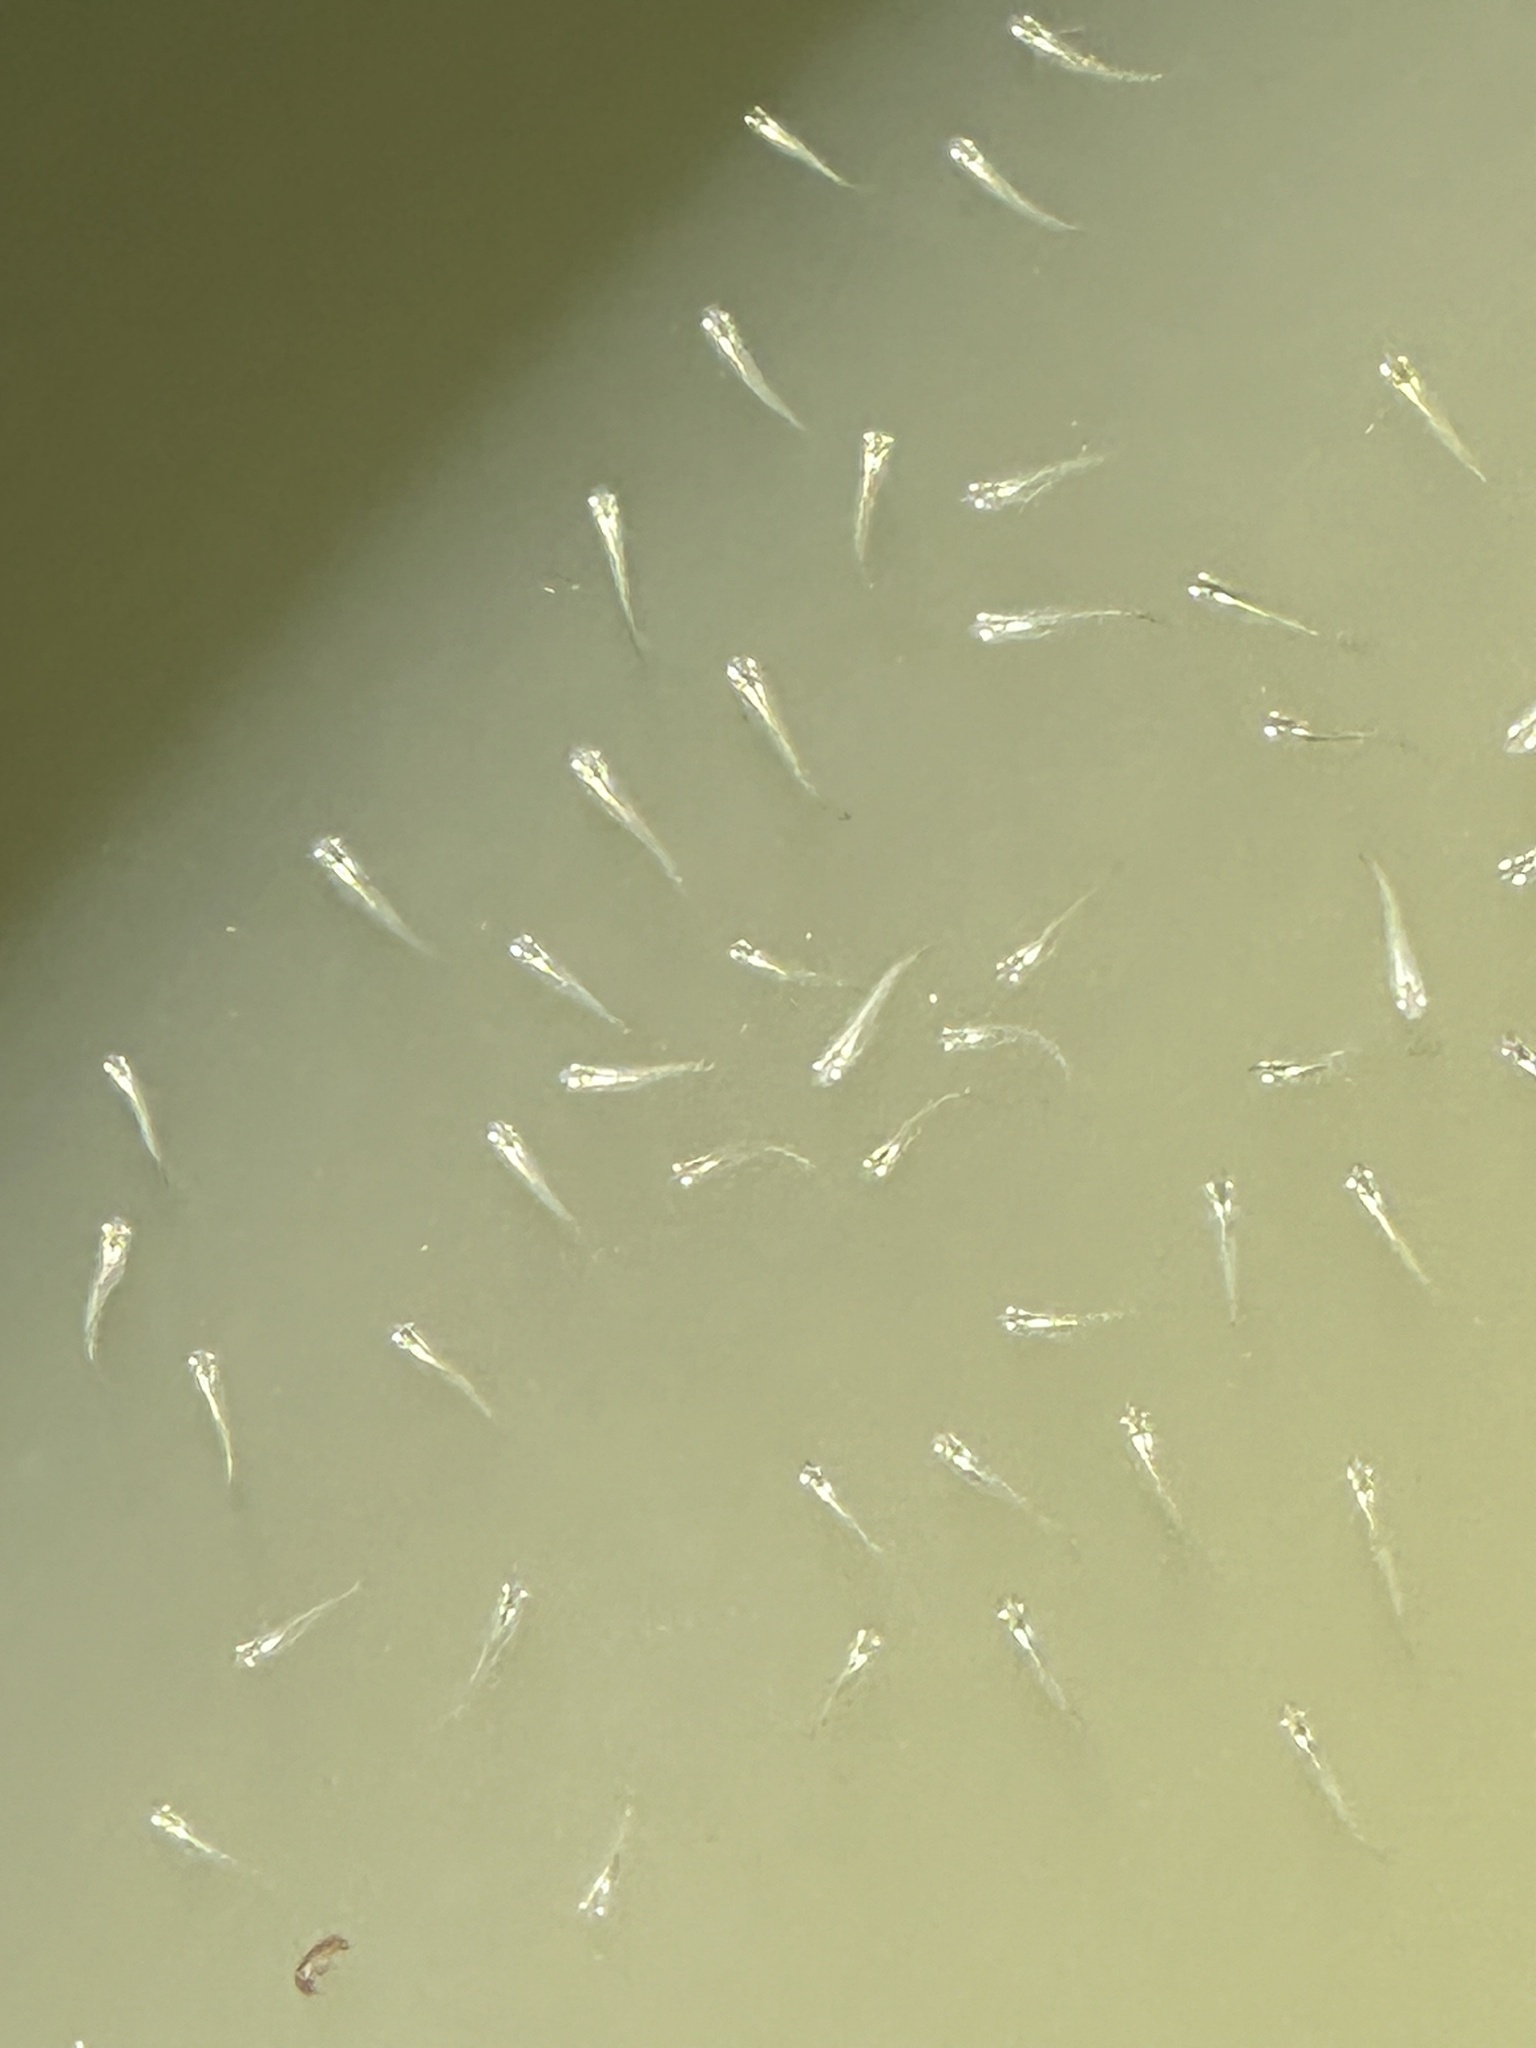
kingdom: Animalia
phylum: Chordata
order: Beloniformes
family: Adrianichthyidae
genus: Oryzias
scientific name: Oryzias javanicus
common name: Javanese ricefish
